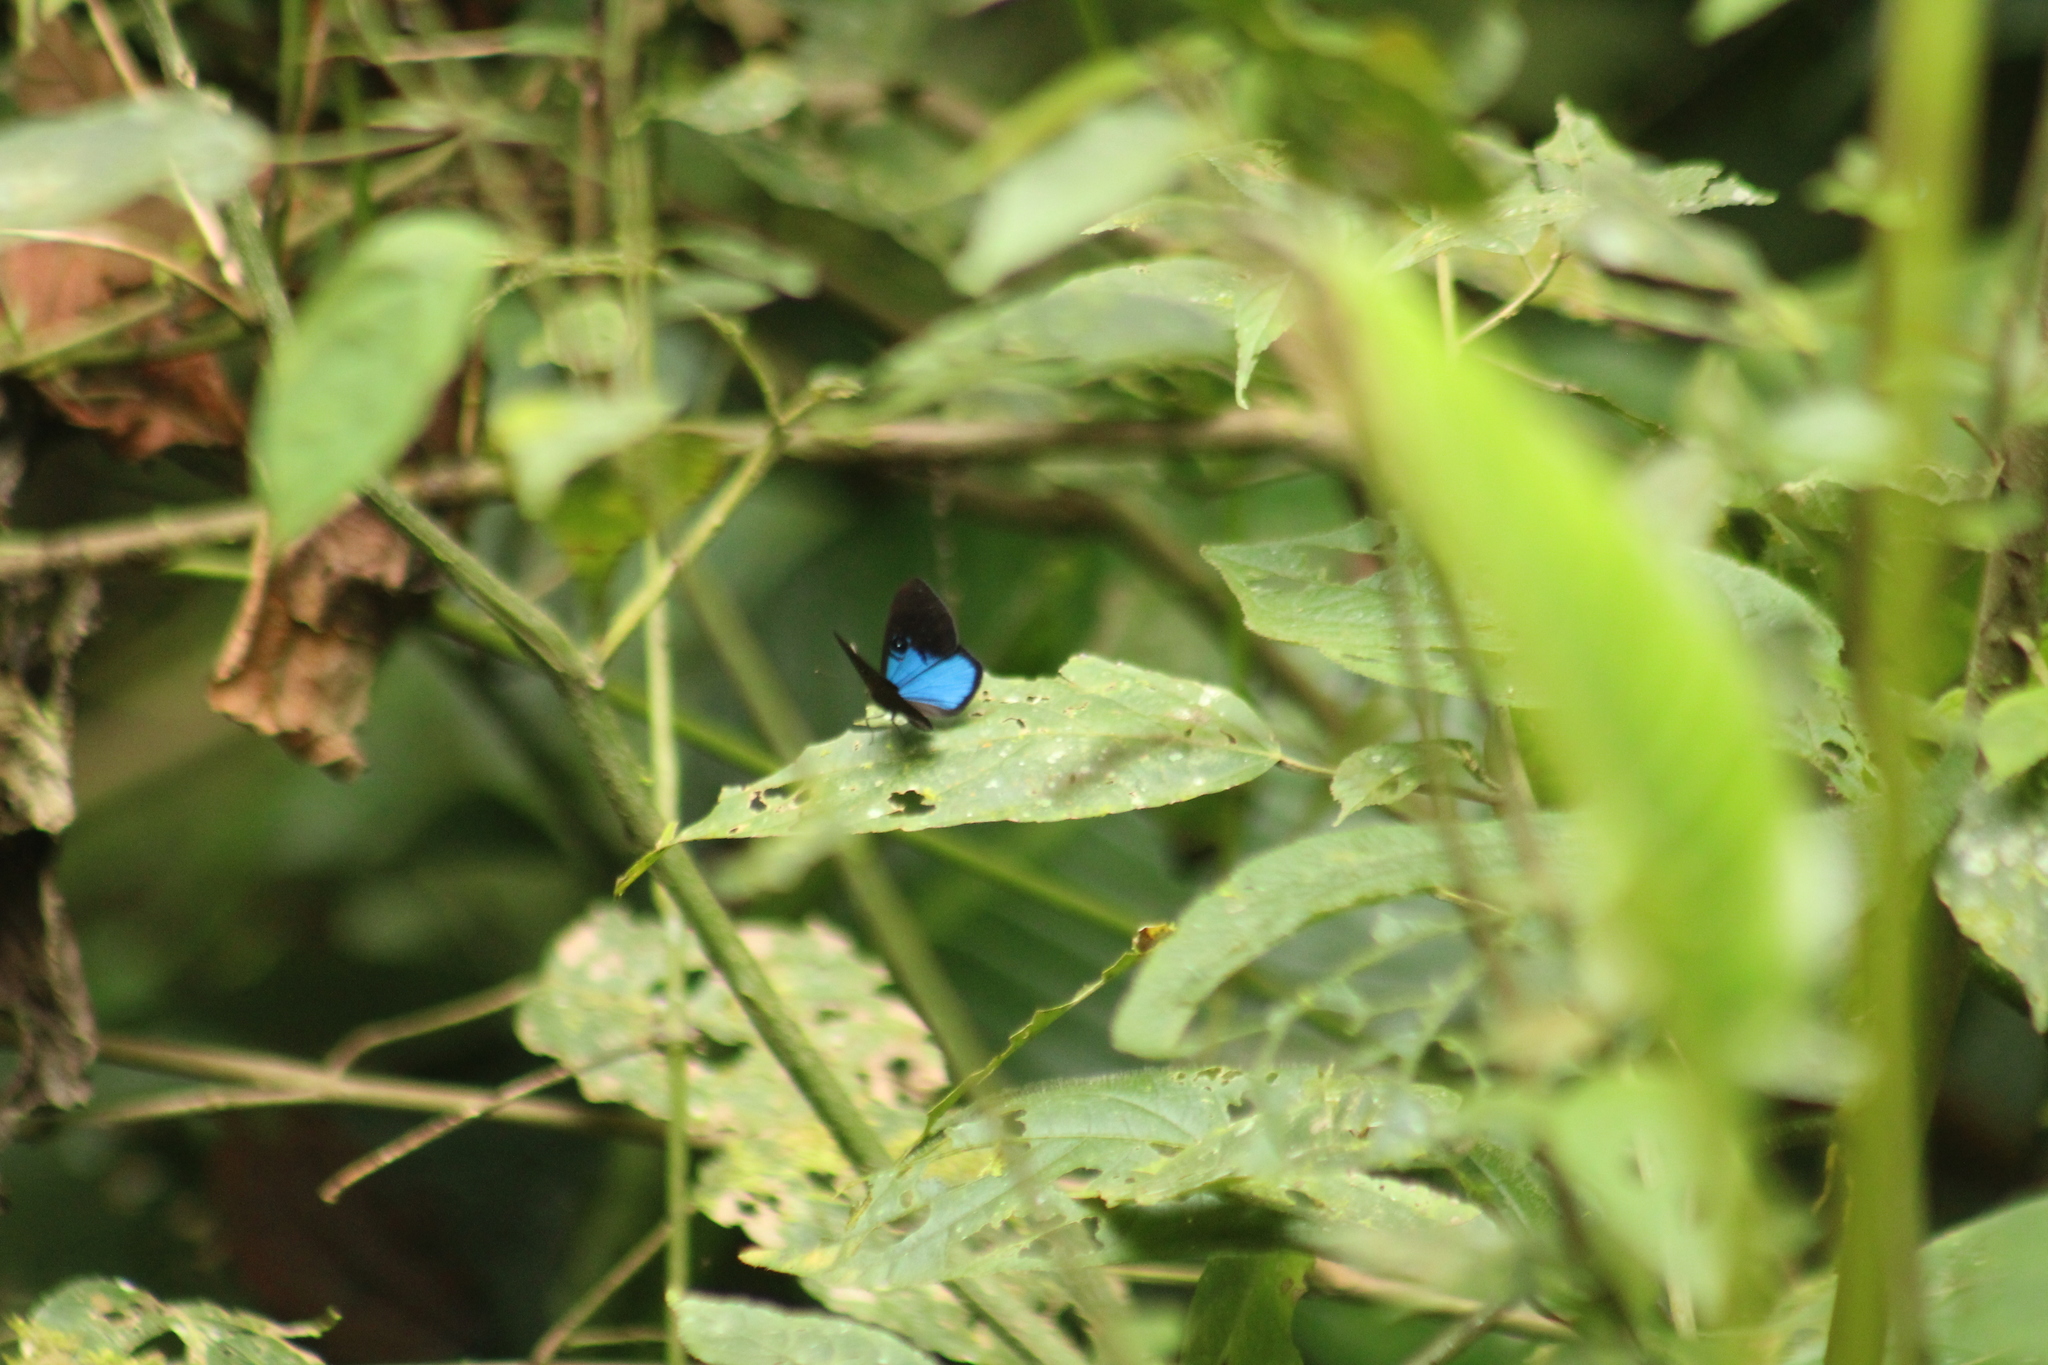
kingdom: Animalia
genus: Mesosemia
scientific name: Mesosemia asa
